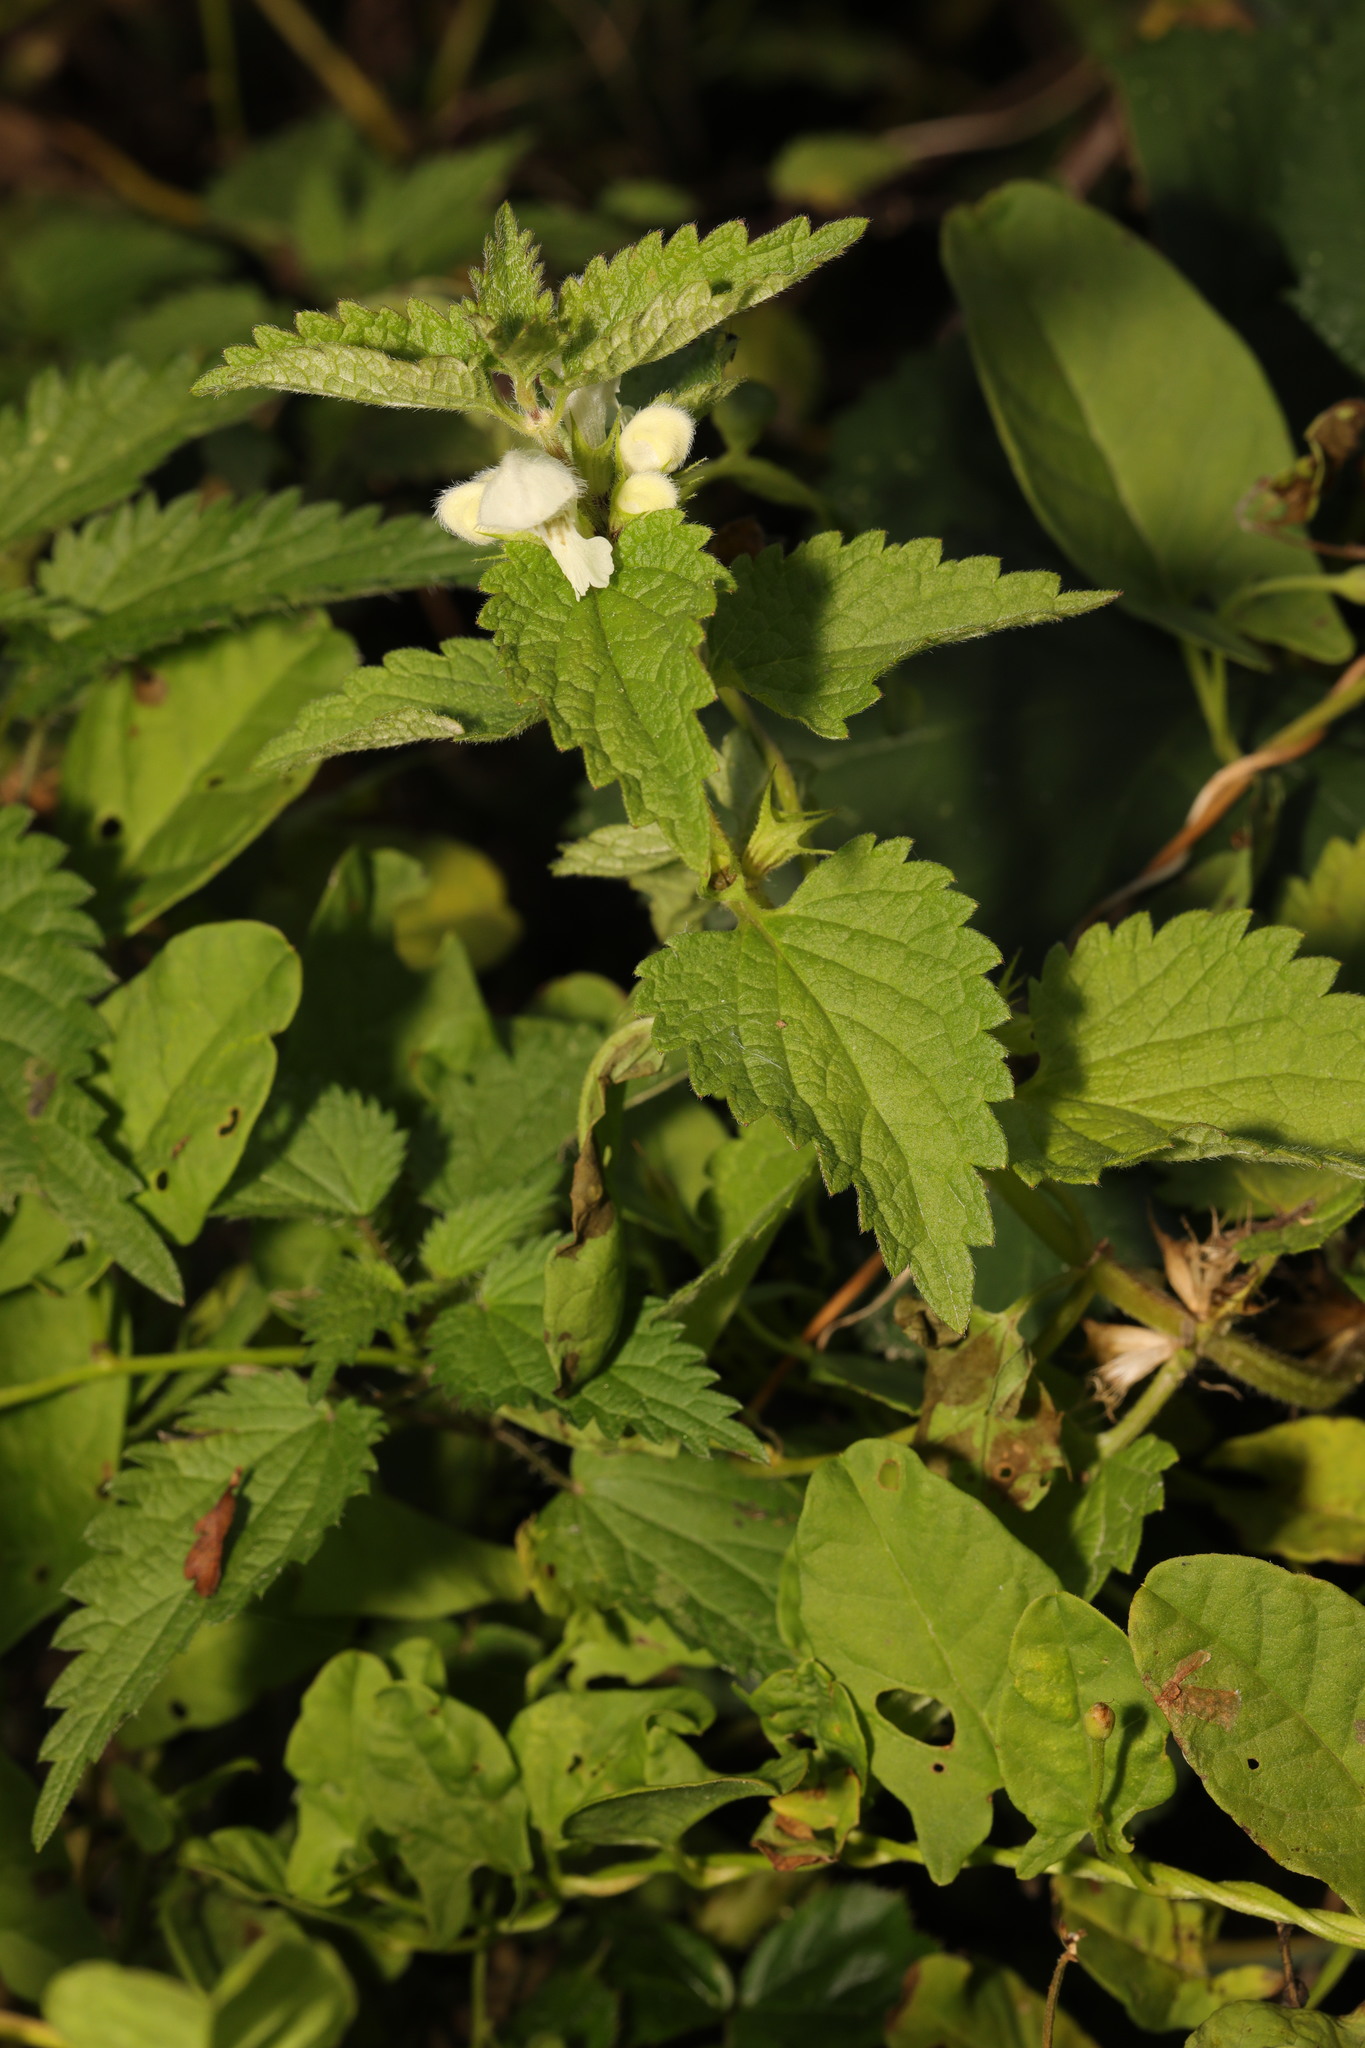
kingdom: Plantae
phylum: Tracheophyta
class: Magnoliopsida
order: Lamiales
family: Lamiaceae
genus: Lamium
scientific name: Lamium album
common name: White dead-nettle
